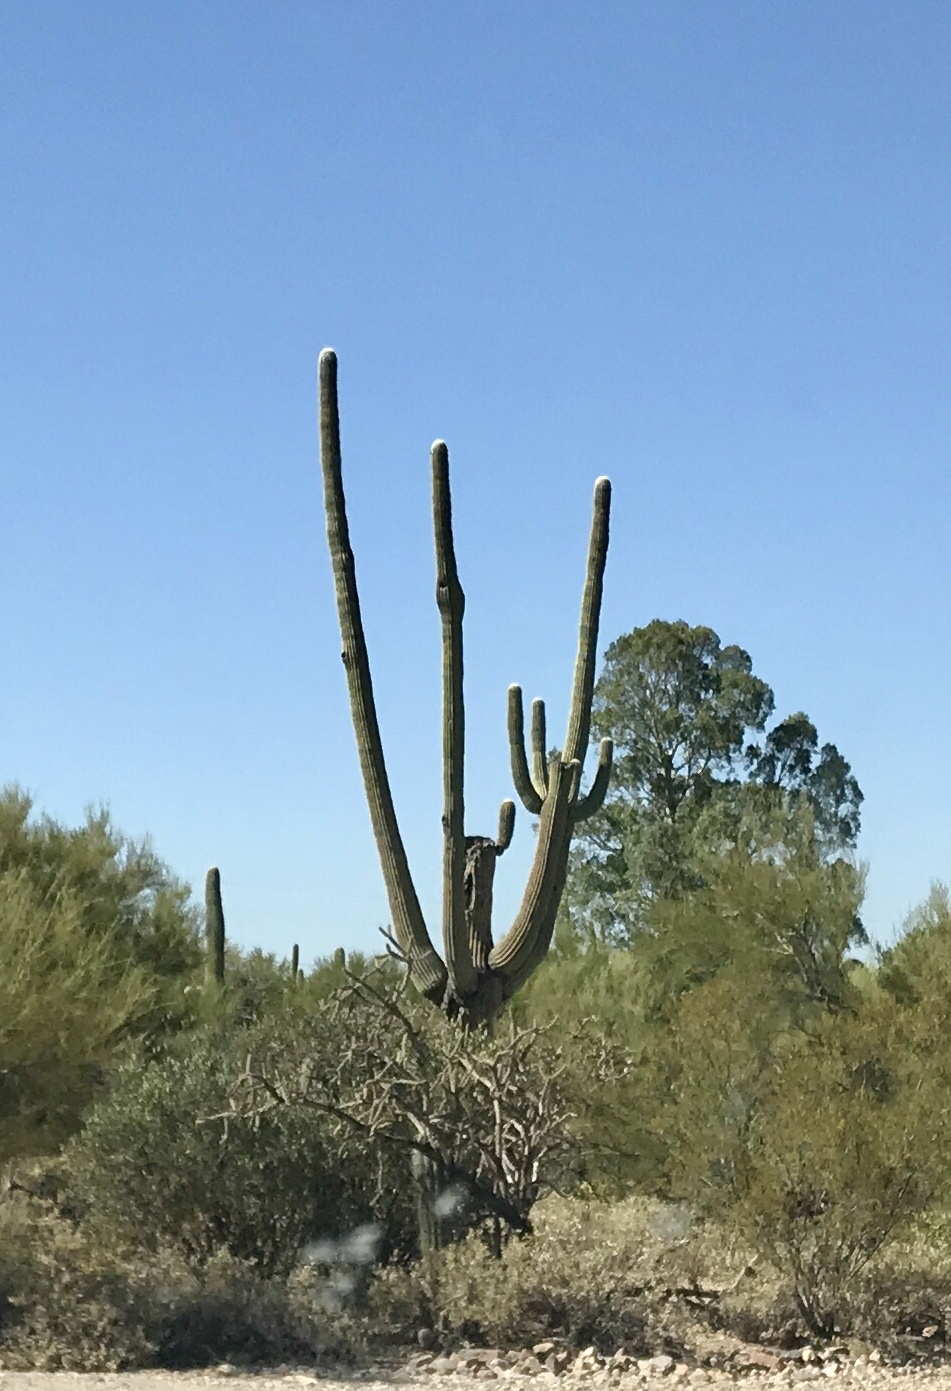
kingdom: Plantae
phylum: Tracheophyta
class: Magnoliopsida
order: Caryophyllales
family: Cactaceae
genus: Carnegiea
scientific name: Carnegiea gigantea
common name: Saguaro
